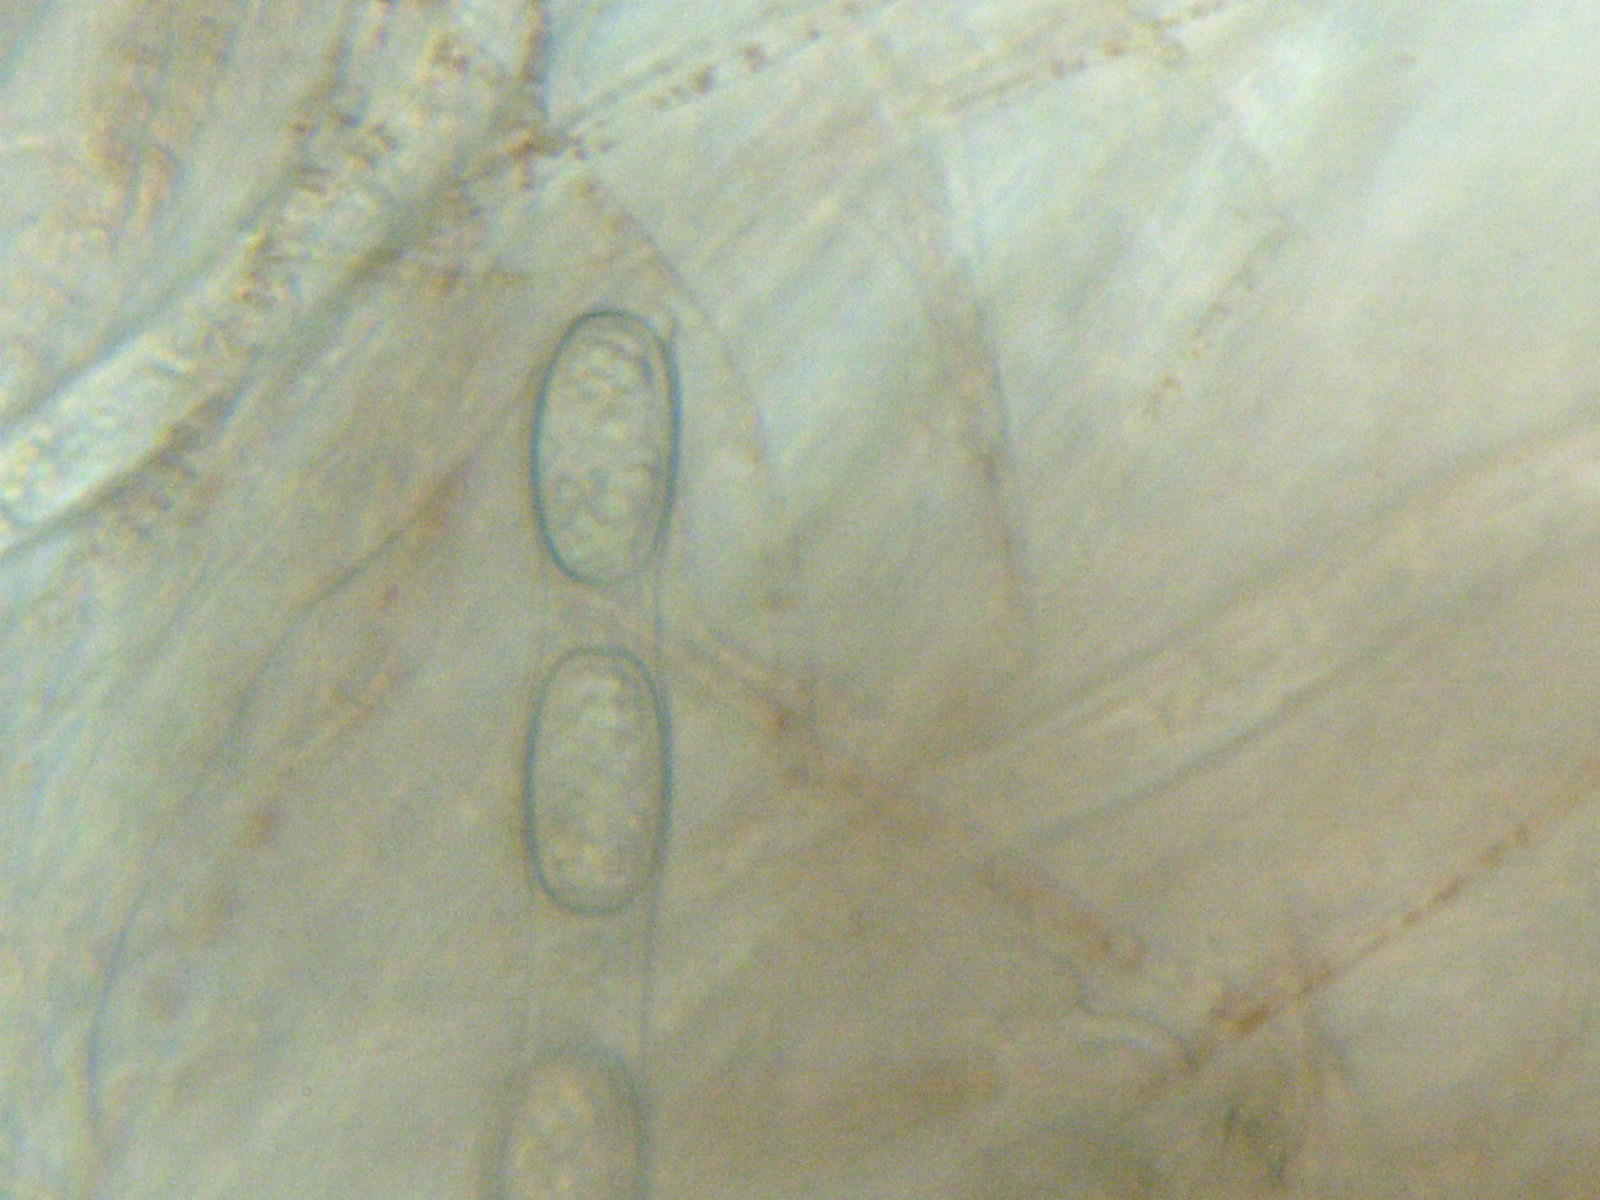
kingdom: Fungi
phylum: Ascomycota
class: Pezizomycetes
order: Pezizales
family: Sarcoscyphaceae
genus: Sarcoscypha
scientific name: Sarcoscypha austriaca
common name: Scarlet elfcup
